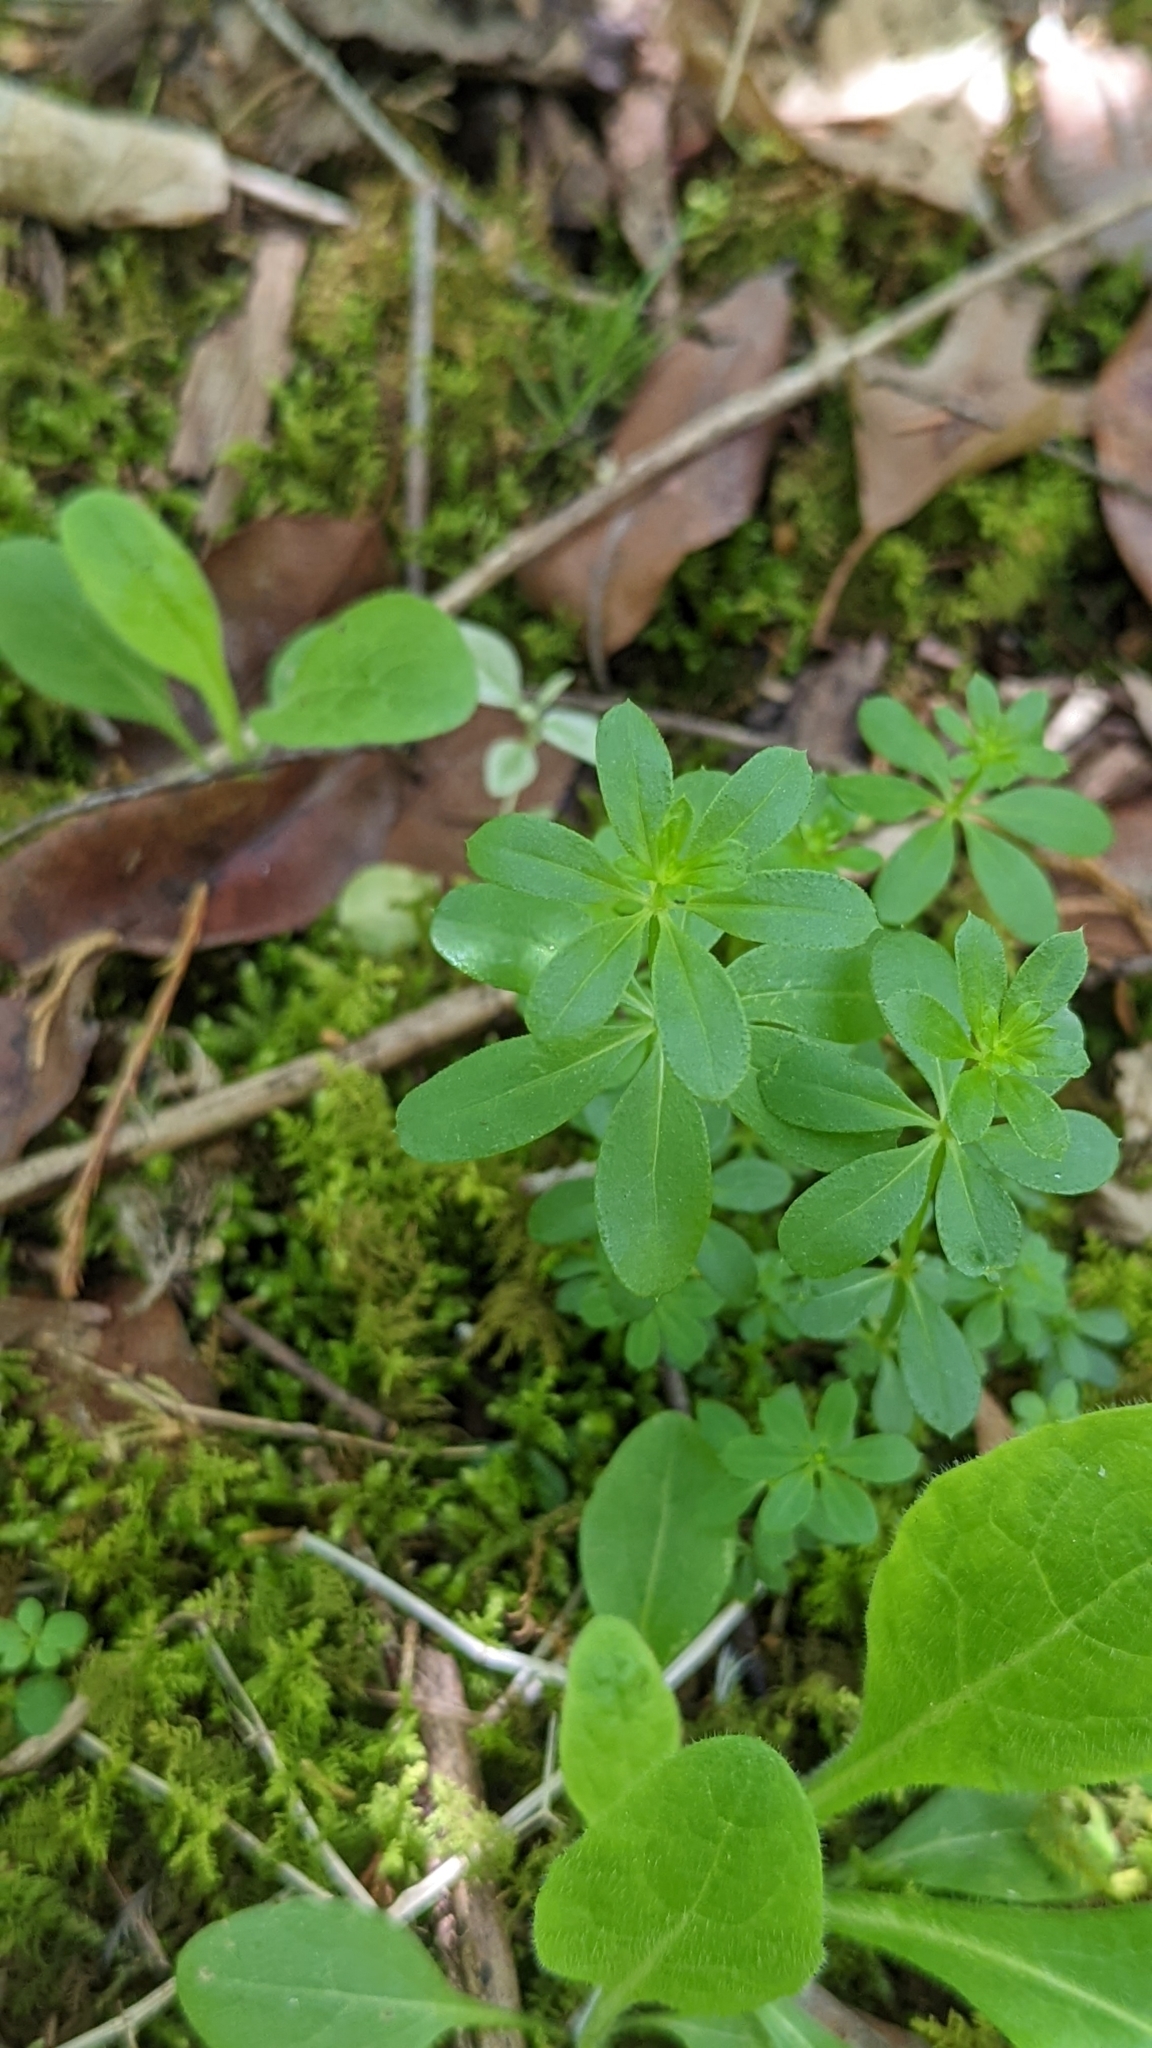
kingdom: Plantae
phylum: Tracheophyta
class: Magnoliopsida
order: Gentianales
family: Rubiaceae
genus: Galium
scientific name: Galium triflorum
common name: Fragrant bedstraw
